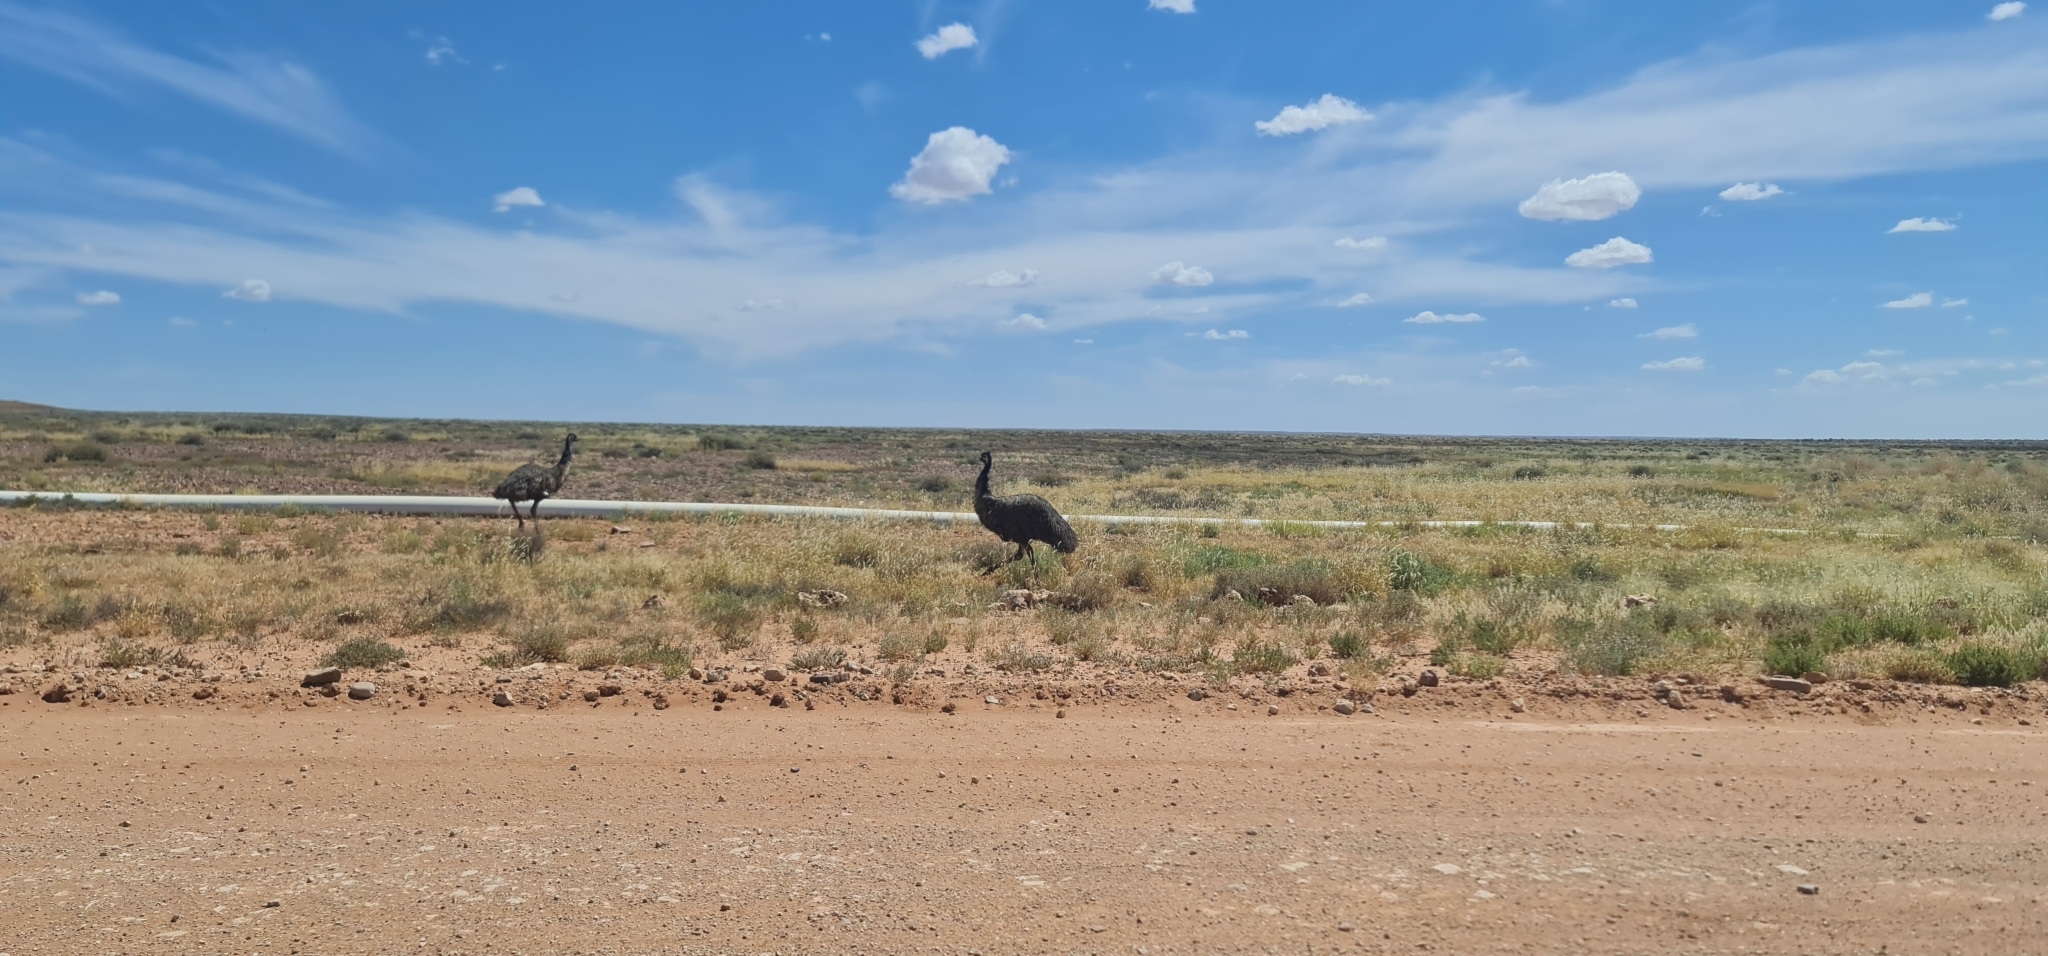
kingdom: Animalia
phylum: Chordata
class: Aves
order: Casuariiformes
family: Dromaiidae
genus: Dromaius
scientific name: Dromaius novaehollandiae
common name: Emu
